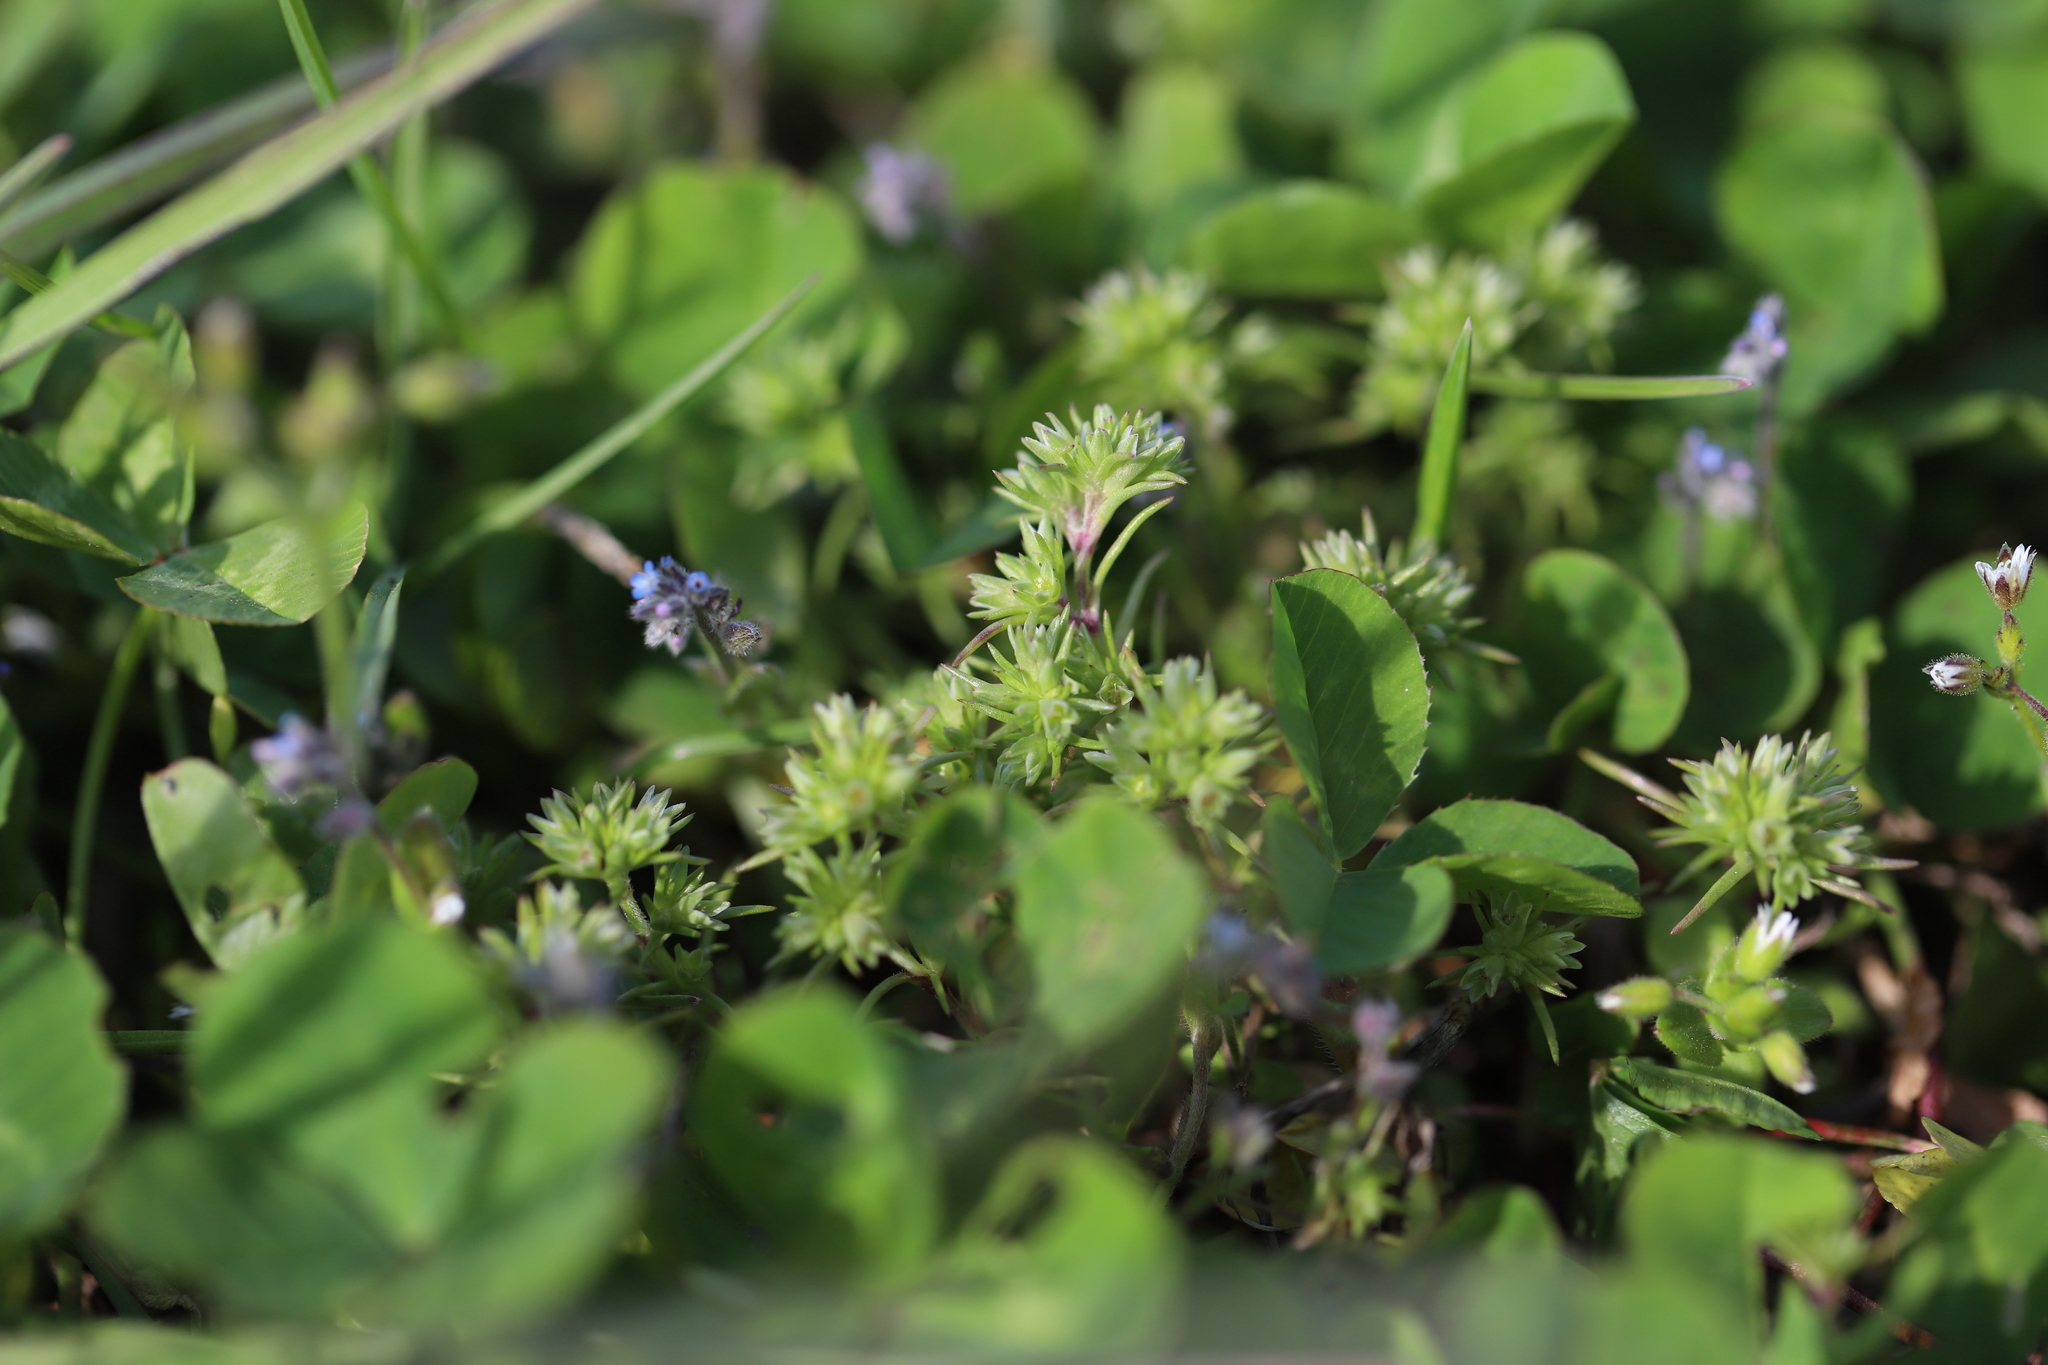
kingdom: Plantae
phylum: Tracheophyta
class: Magnoliopsida
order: Caryophyllales
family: Caryophyllaceae
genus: Scleranthus
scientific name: Scleranthus annuus
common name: Annual knawel
